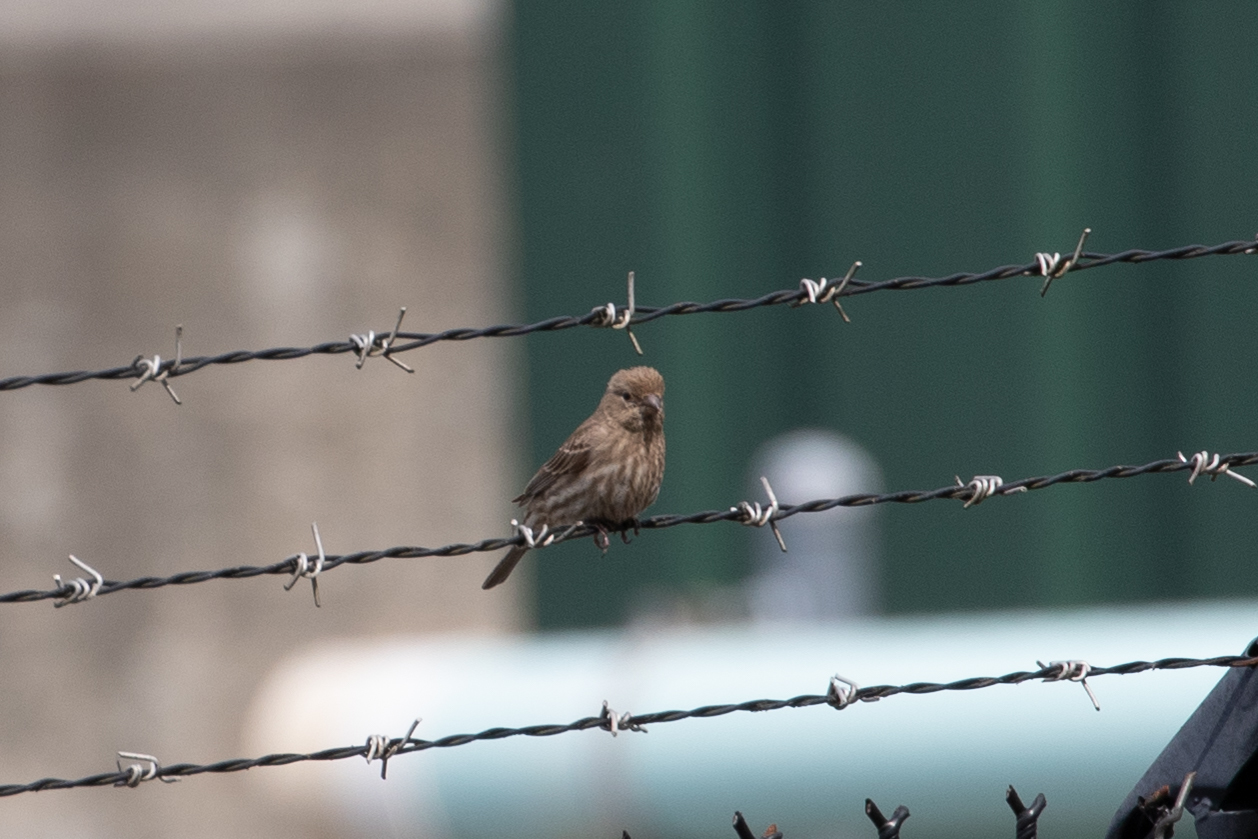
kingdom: Animalia
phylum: Chordata
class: Aves
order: Passeriformes
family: Fringillidae
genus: Haemorhous
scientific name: Haemorhous mexicanus
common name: House finch
